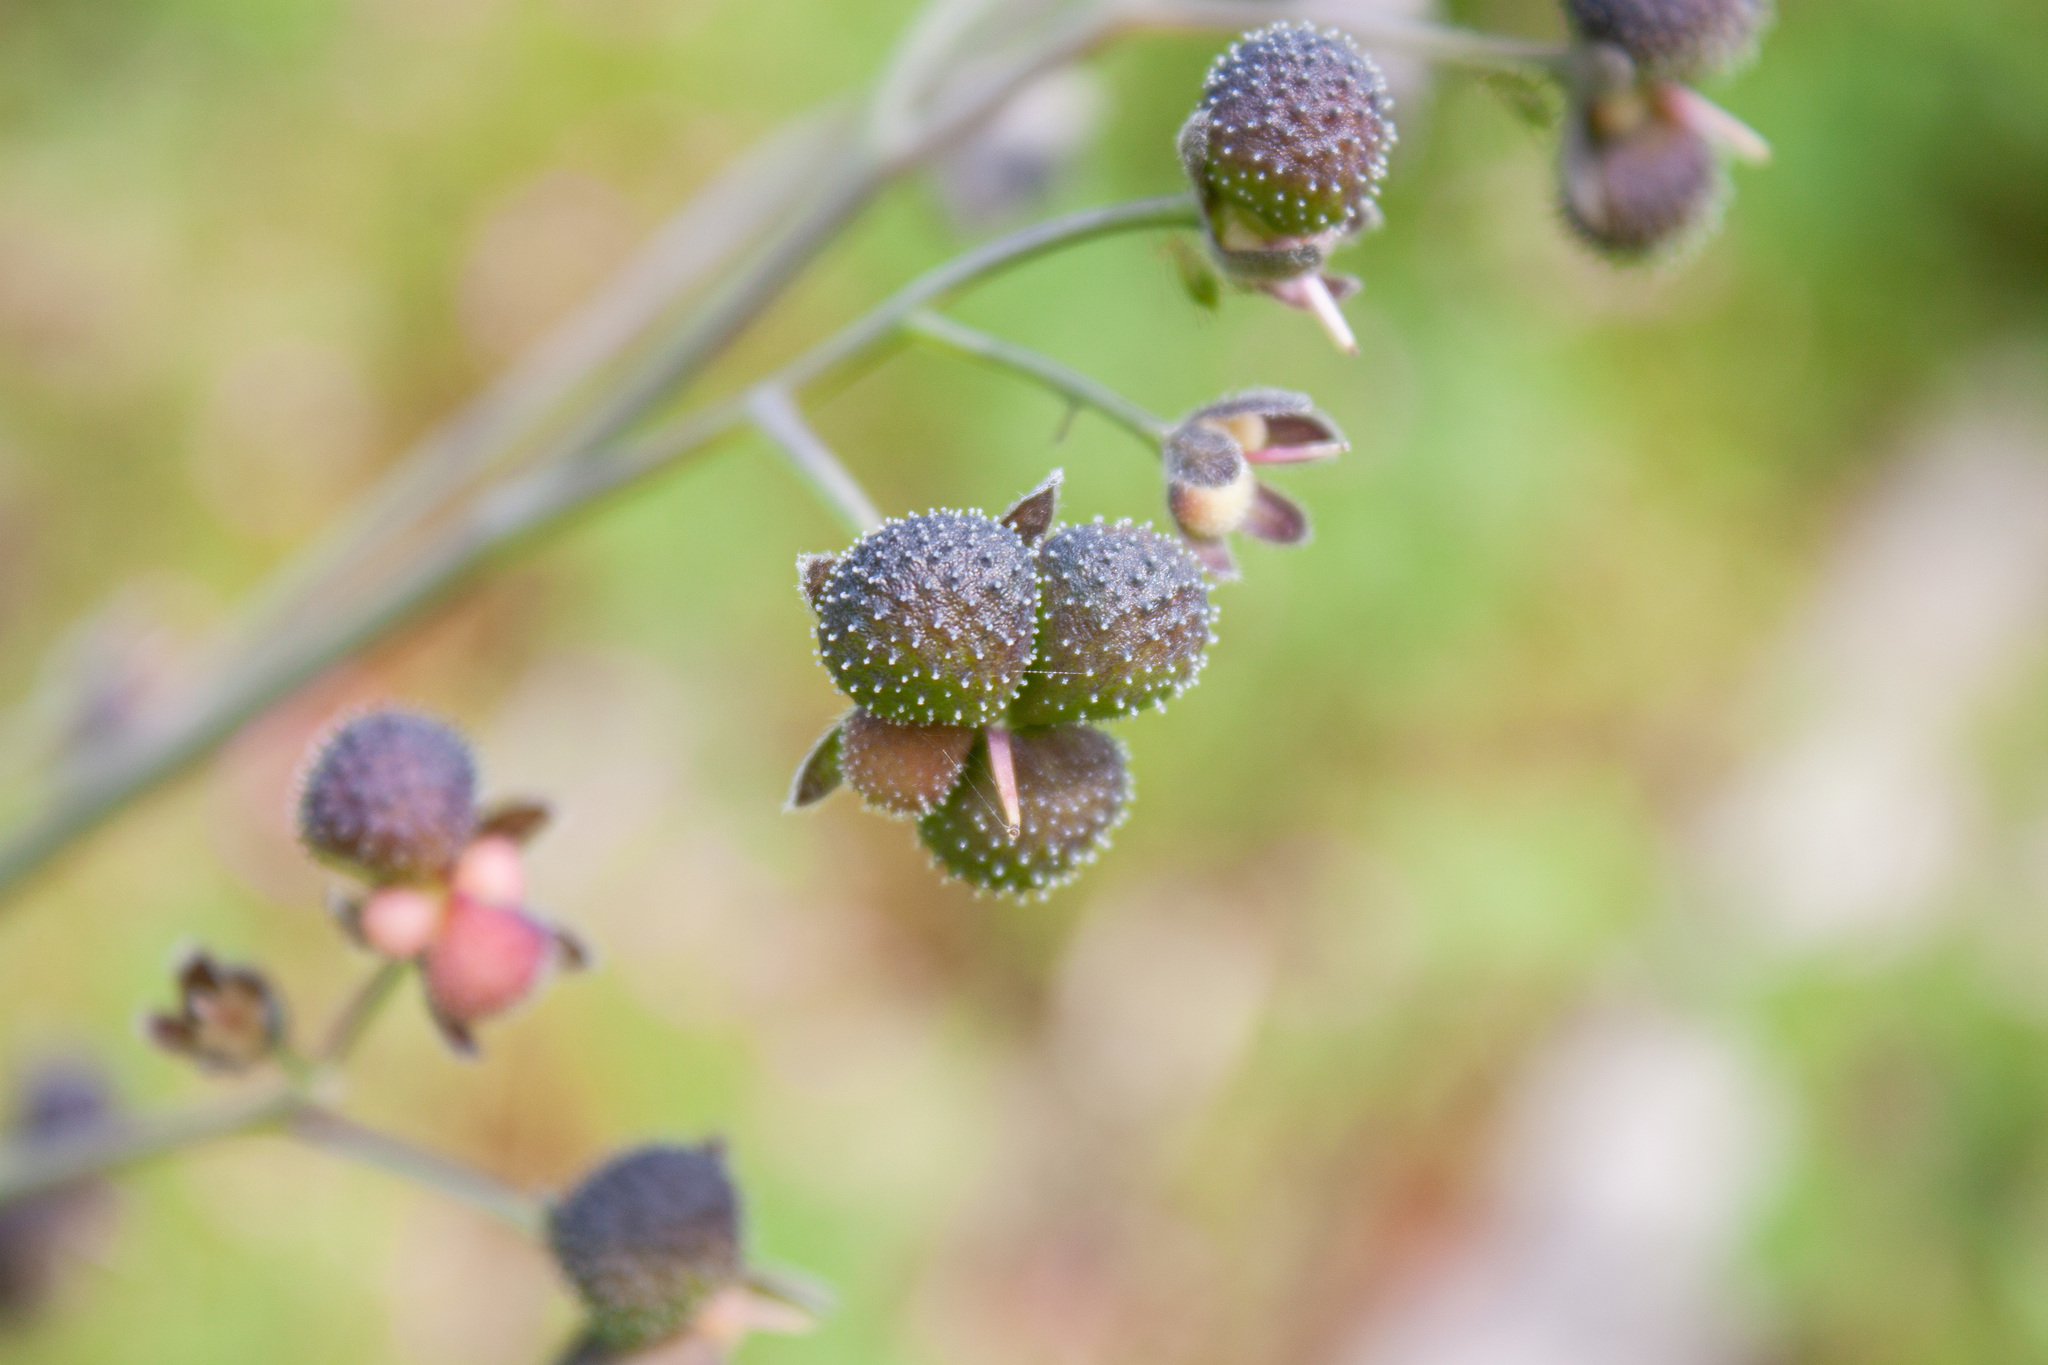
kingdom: Plantae
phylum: Tracheophyta
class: Magnoliopsida
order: Boraginales
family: Boraginaceae
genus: Adelinia
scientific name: Adelinia grande
